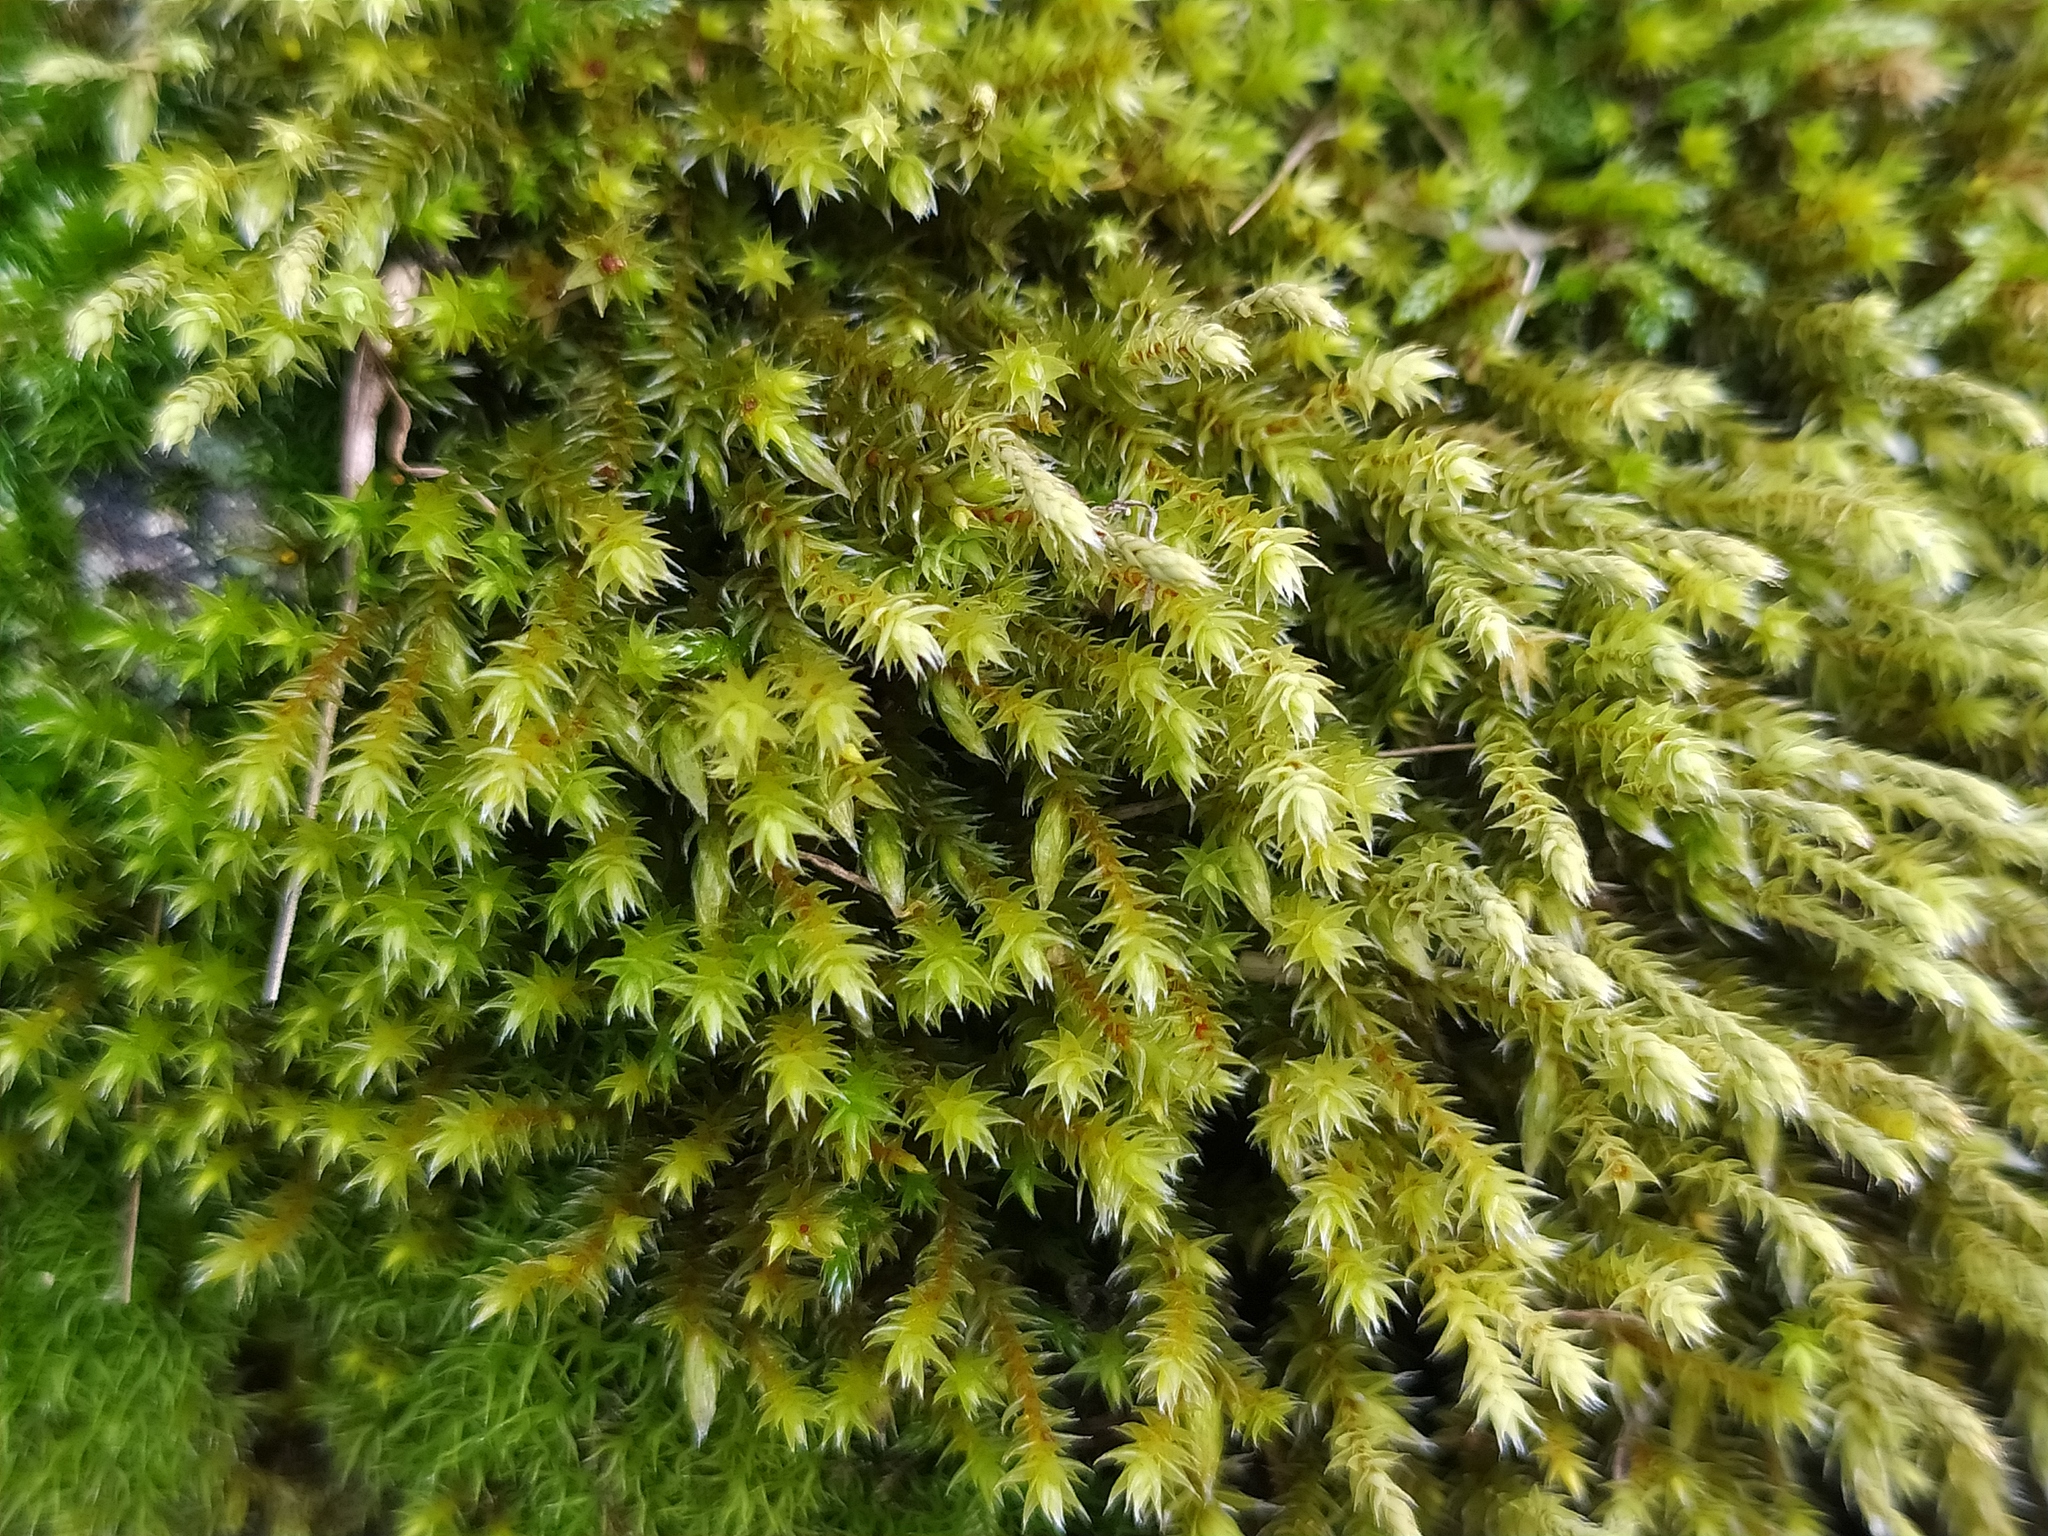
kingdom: Plantae
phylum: Bryophyta
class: Bryopsida
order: Hedwigiales
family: Hedwigiaceae
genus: Hedwigia
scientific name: Hedwigia ciliata
